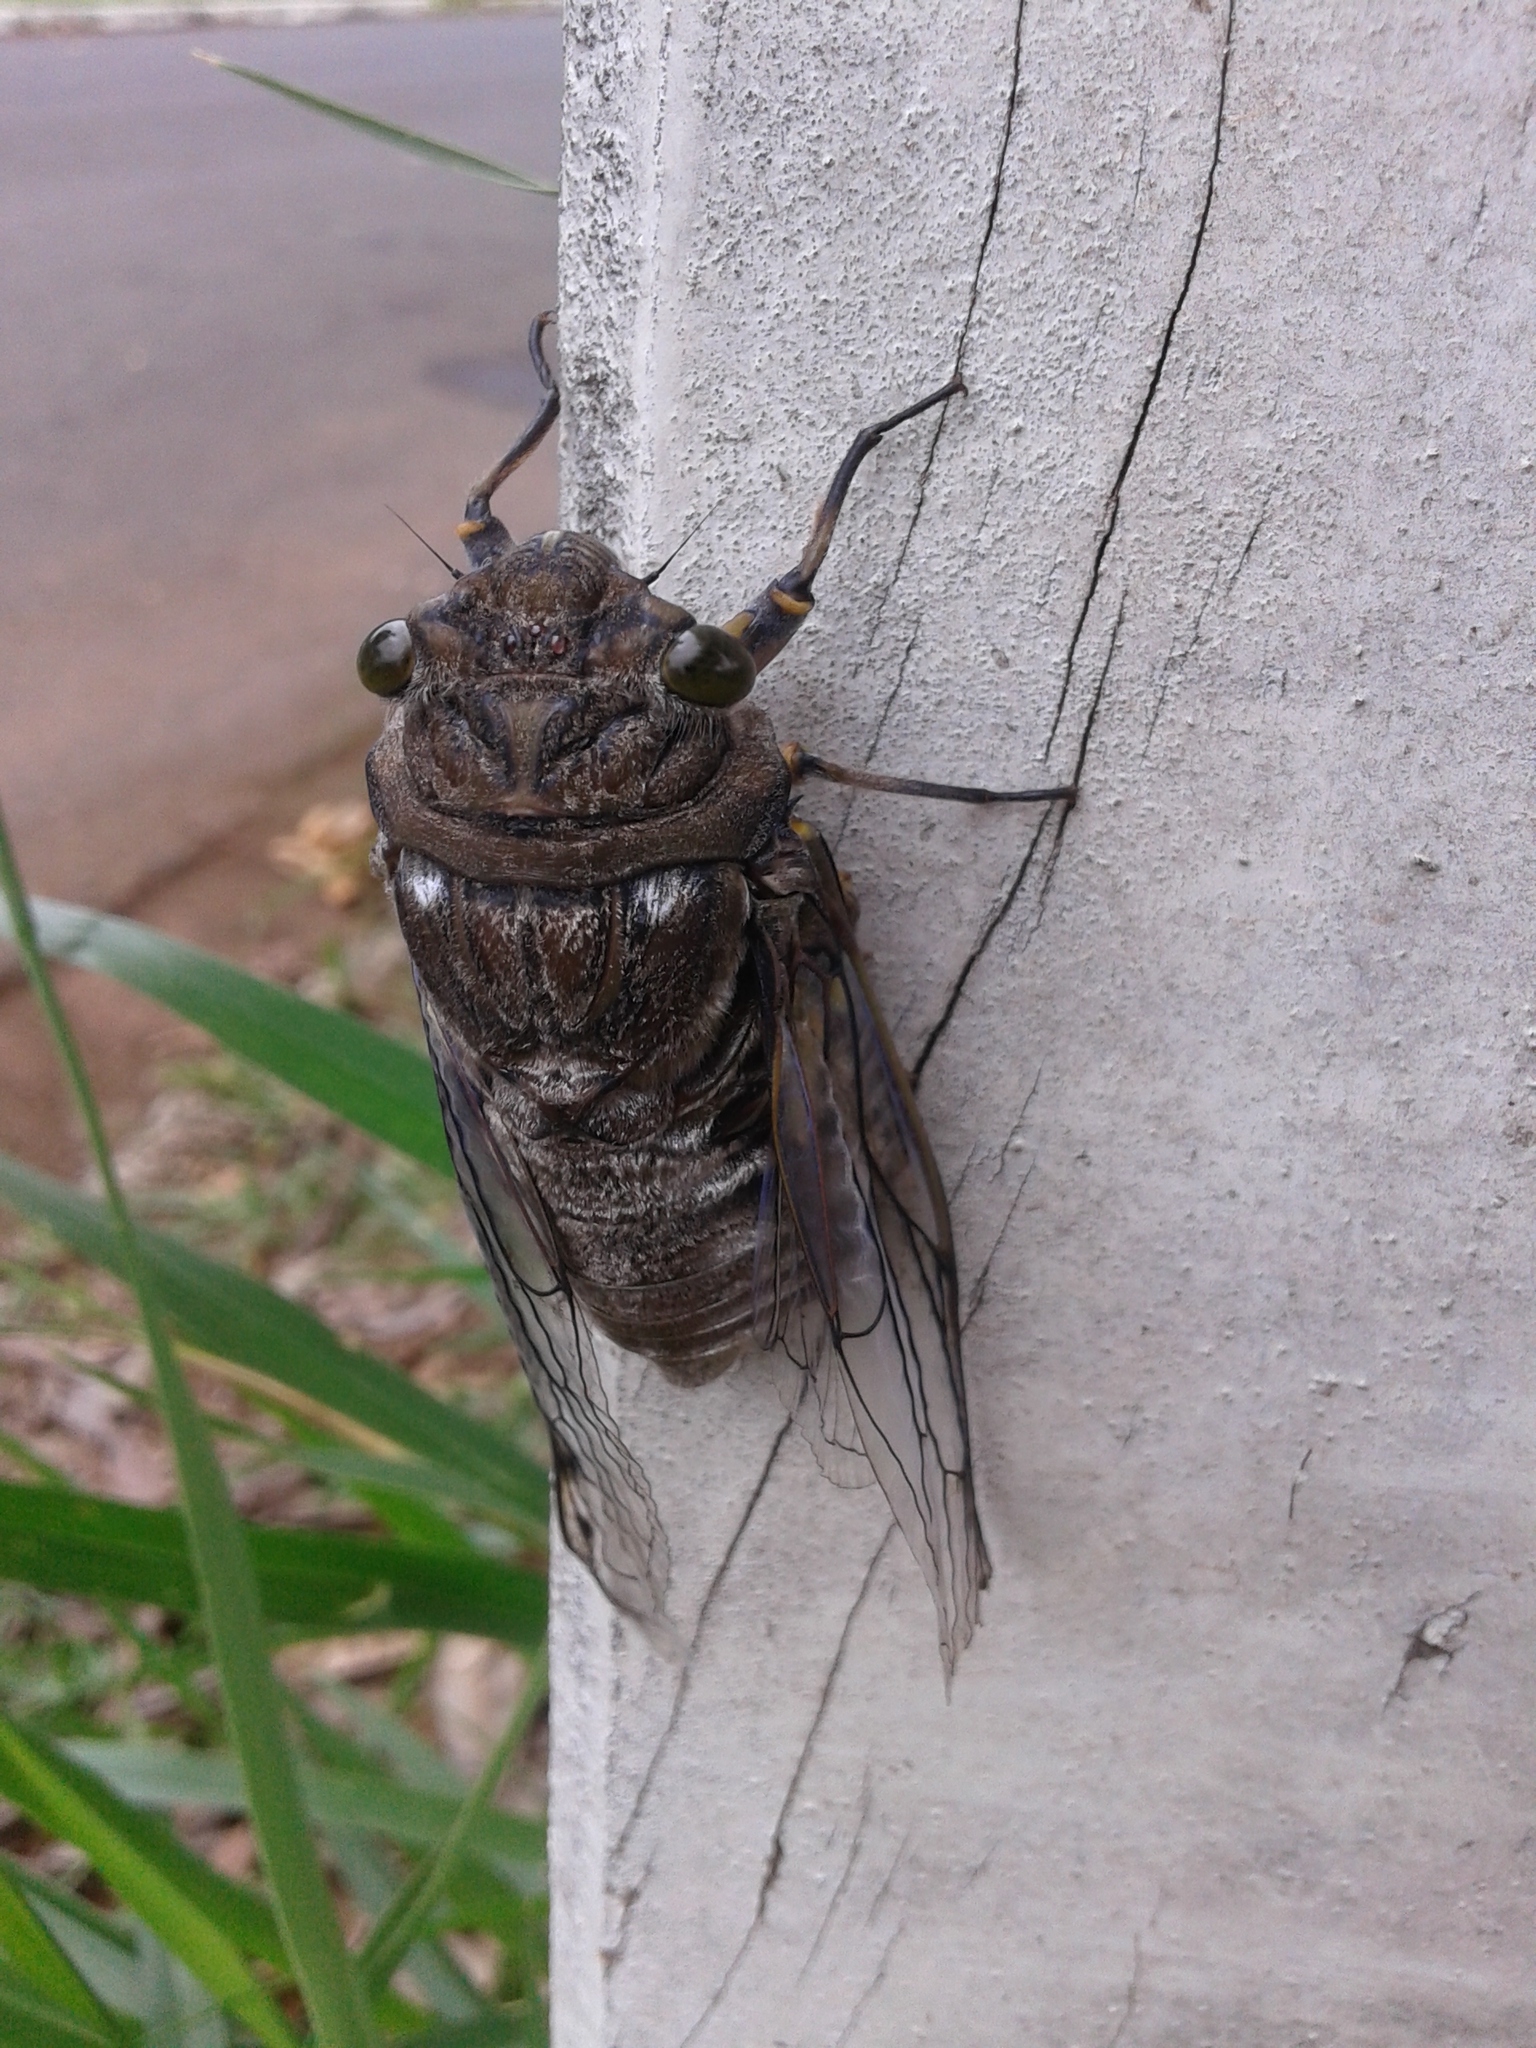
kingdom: Animalia
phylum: Arthropoda
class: Insecta
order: Hemiptera
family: Cicadidae
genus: Quesada
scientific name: Quesada gigas
